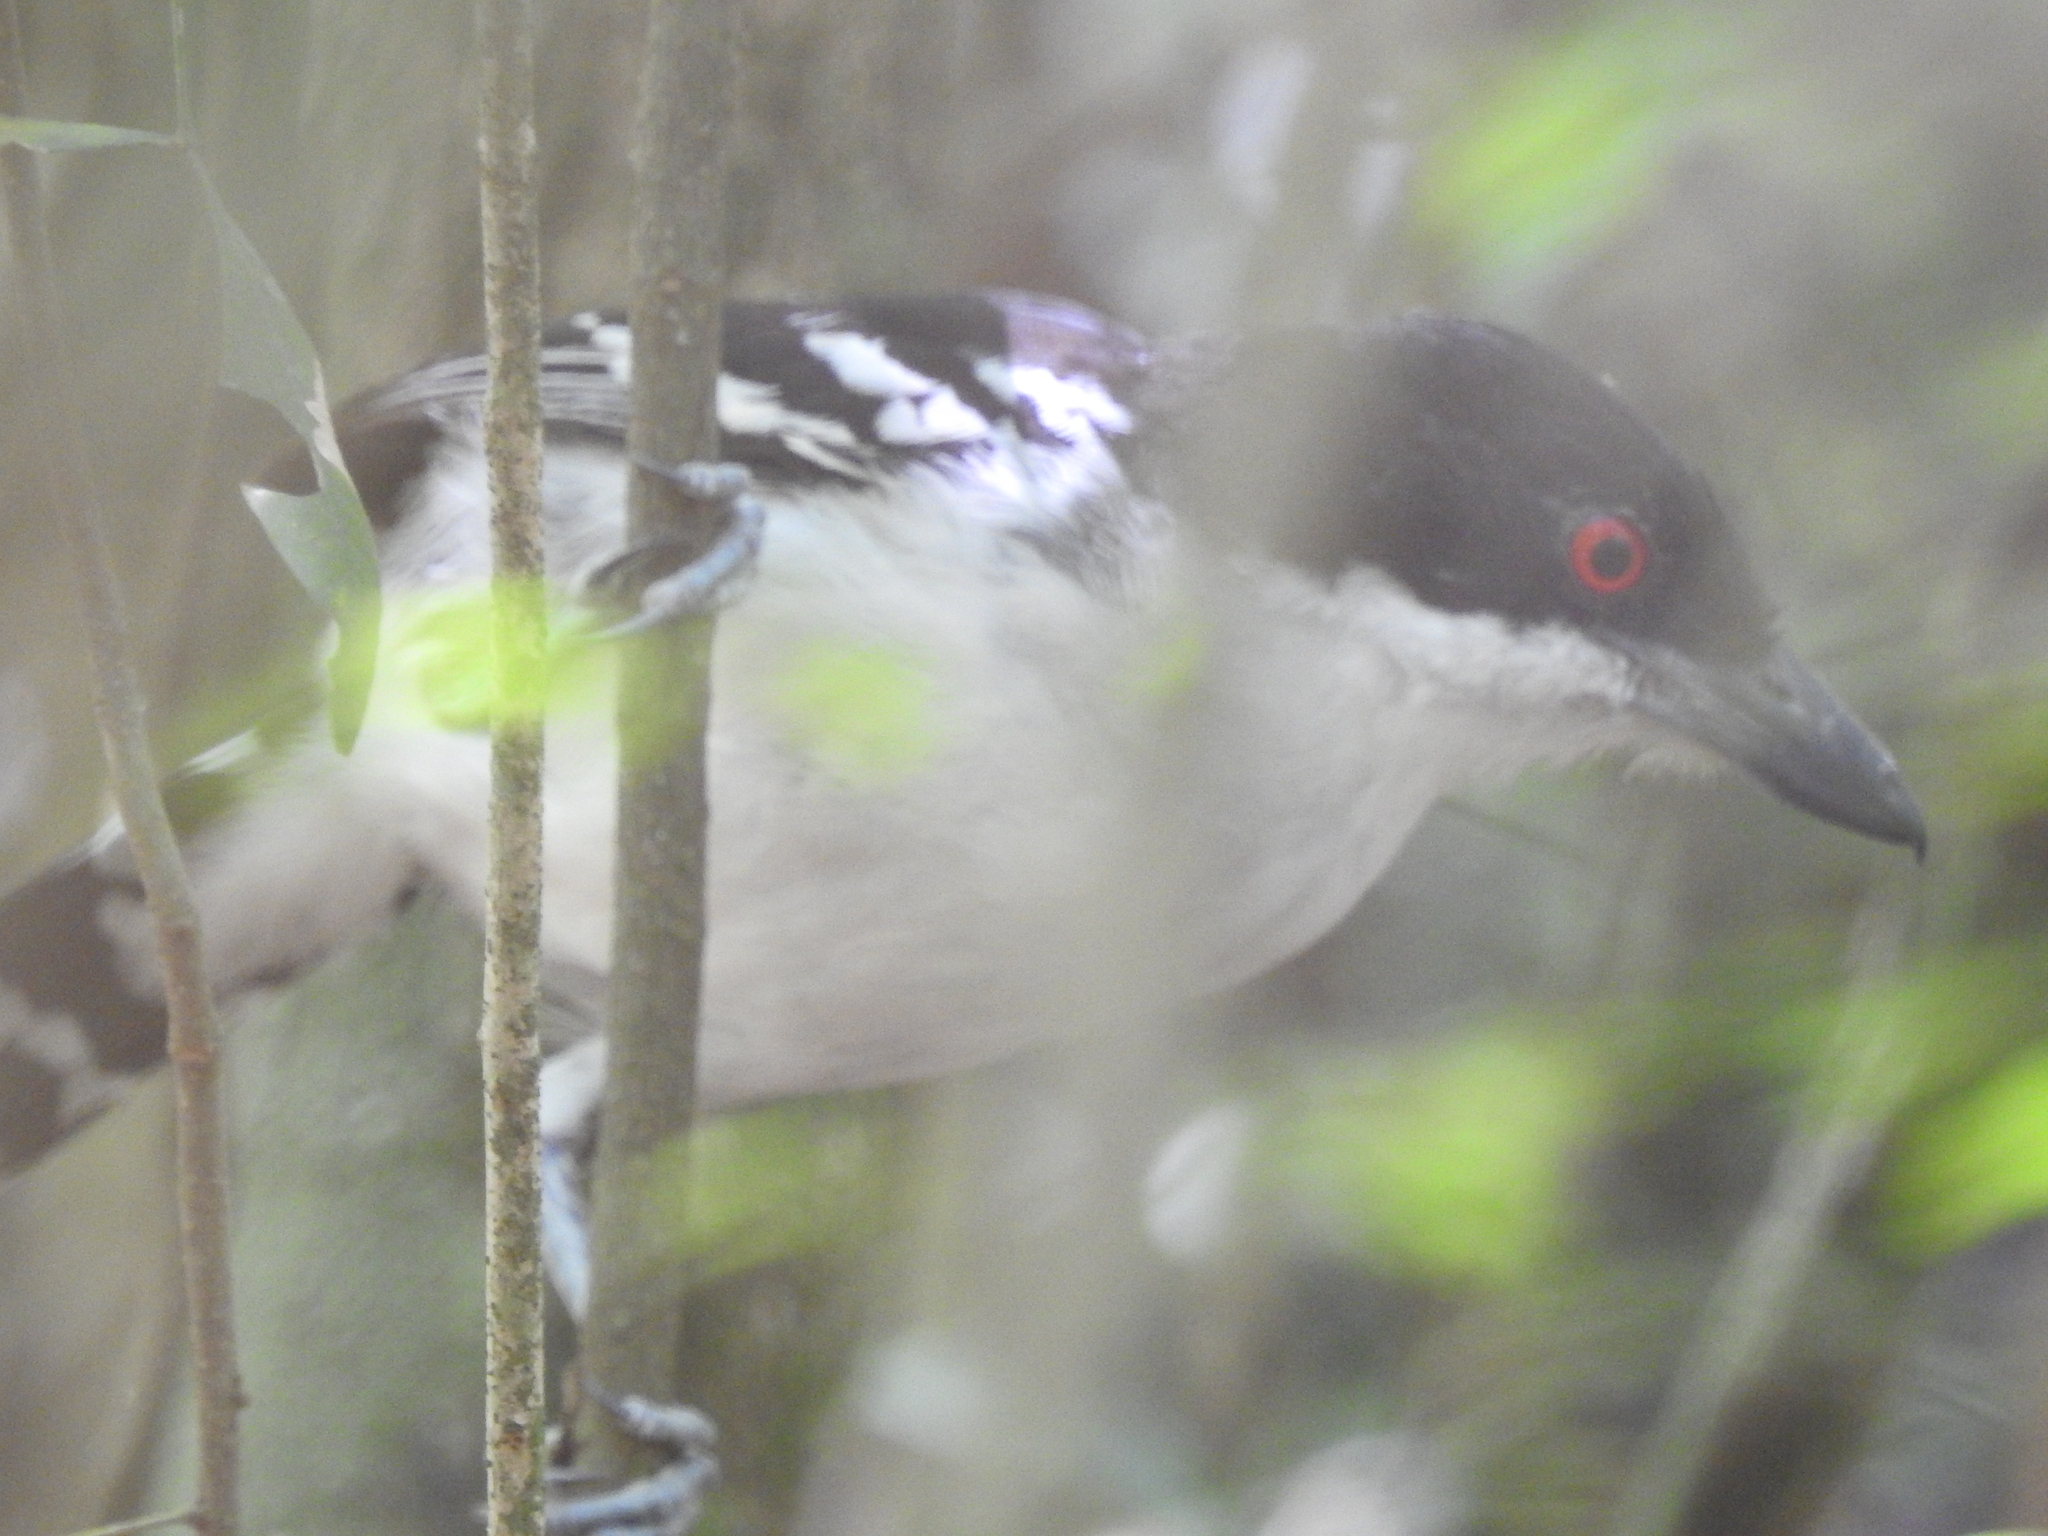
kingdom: Animalia
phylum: Chordata
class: Aves
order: Passeriformes
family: Thamnophilidae
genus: Taraba
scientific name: Taraba major
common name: Great antshrike
